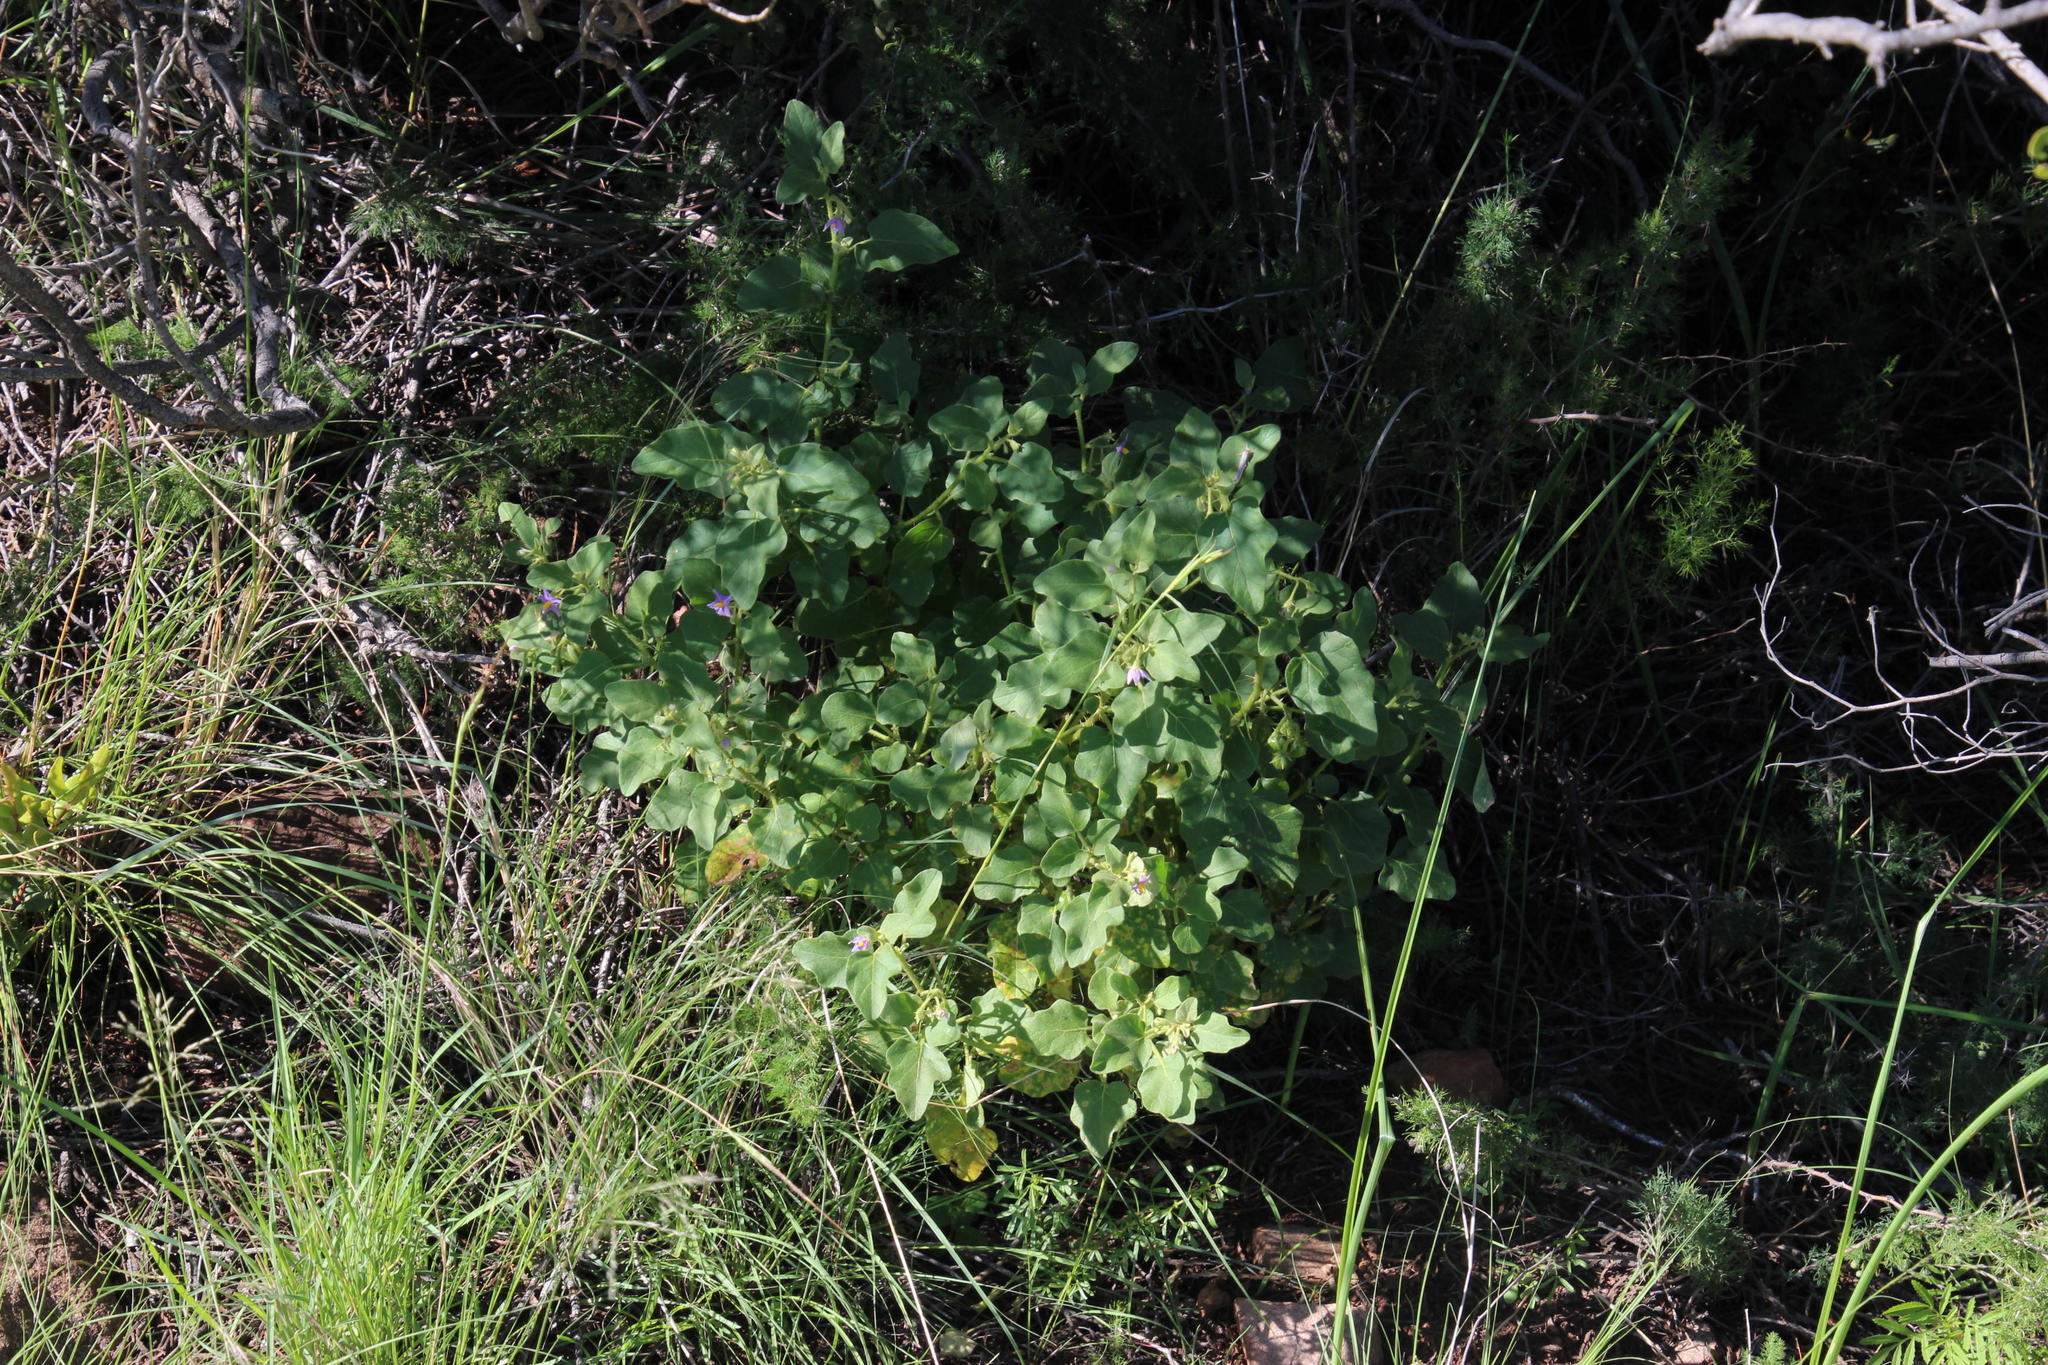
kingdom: Plantae
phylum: Tracheophyta
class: Magnoliopsida
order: Solanales
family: Solanaceae
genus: Solanum
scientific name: Solanum tomentosum
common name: Wild aubergine
